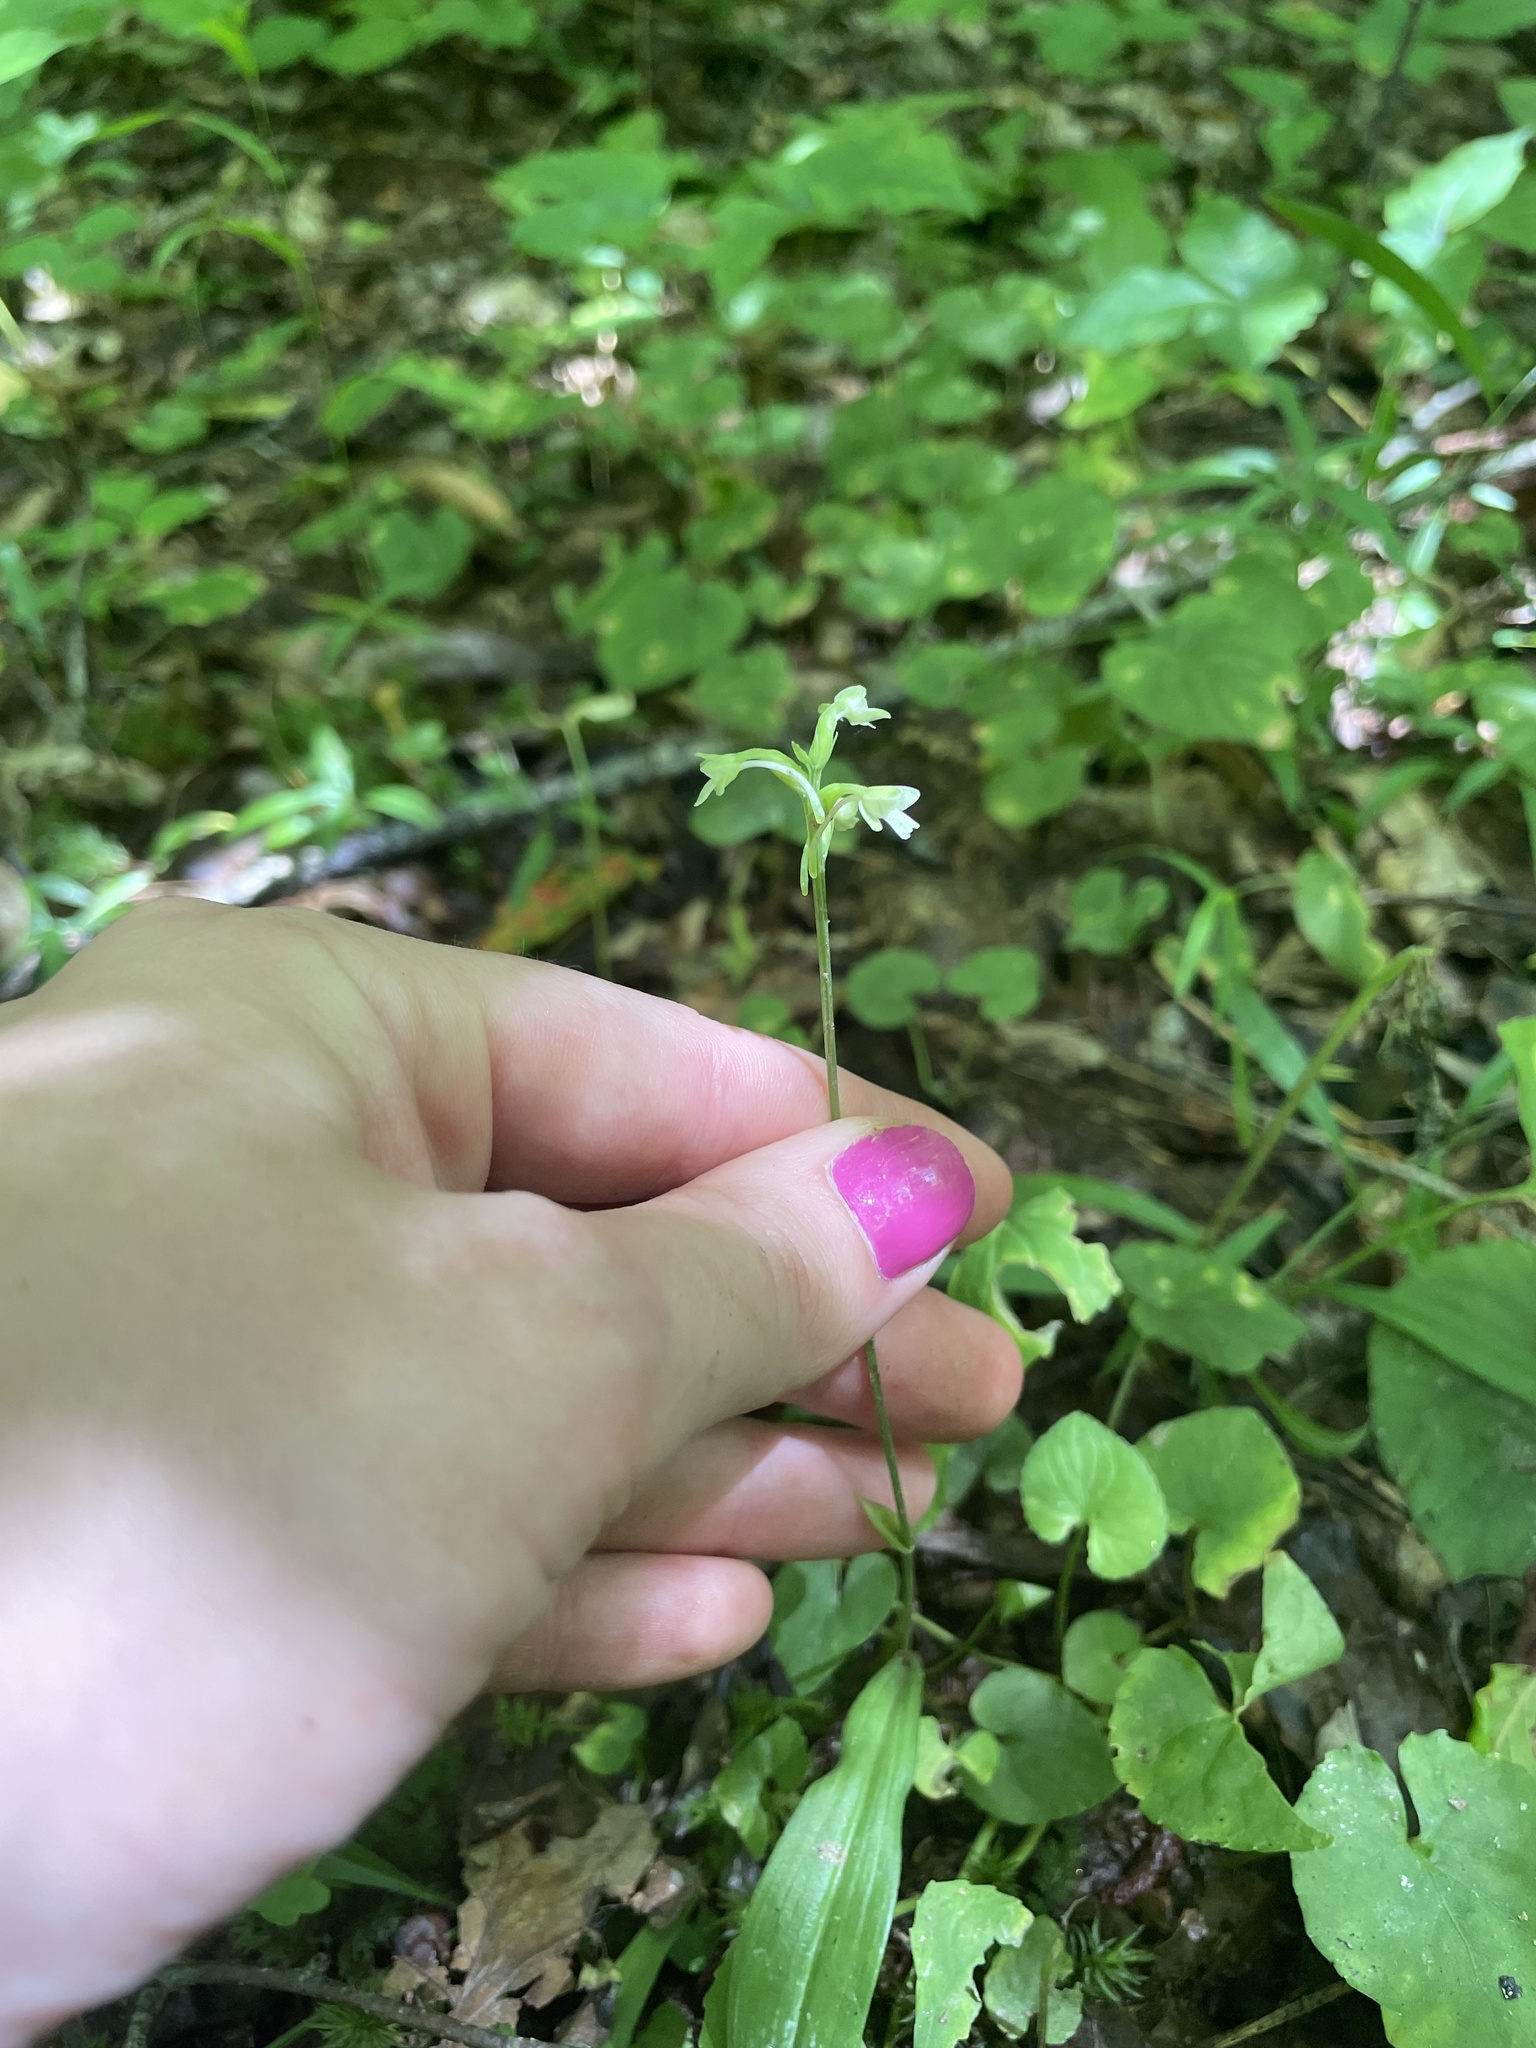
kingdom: Plantae
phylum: Tracheophyta
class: Liliopsida
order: Asparagales
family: Orchidaceae
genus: Platanthera
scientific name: Platanthera clavellata
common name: Club-spur orchid
